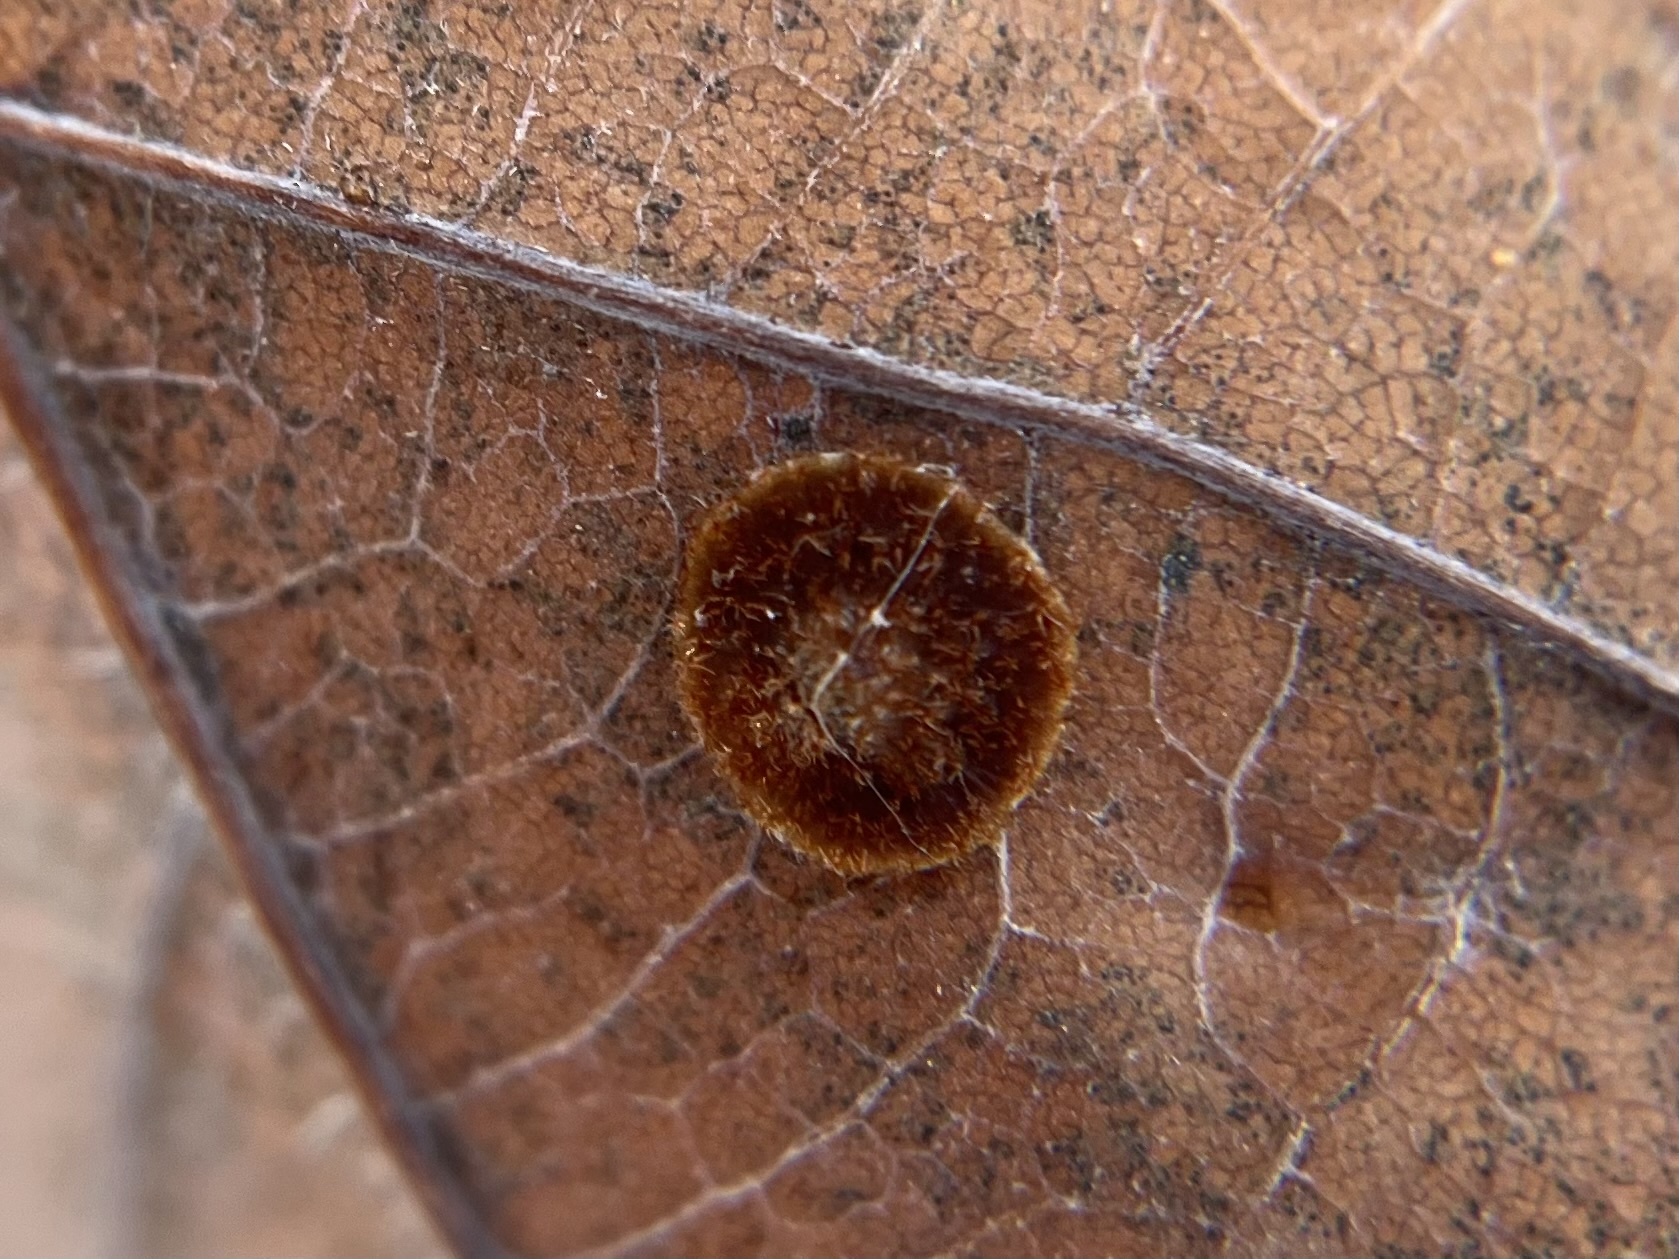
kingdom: Animalia
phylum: Arthropoda
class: Insecta
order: Hymenoptera
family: Cynipidae
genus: Neuroterus
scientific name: Neuroterus quercusbaccarum
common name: Common spangle gall
